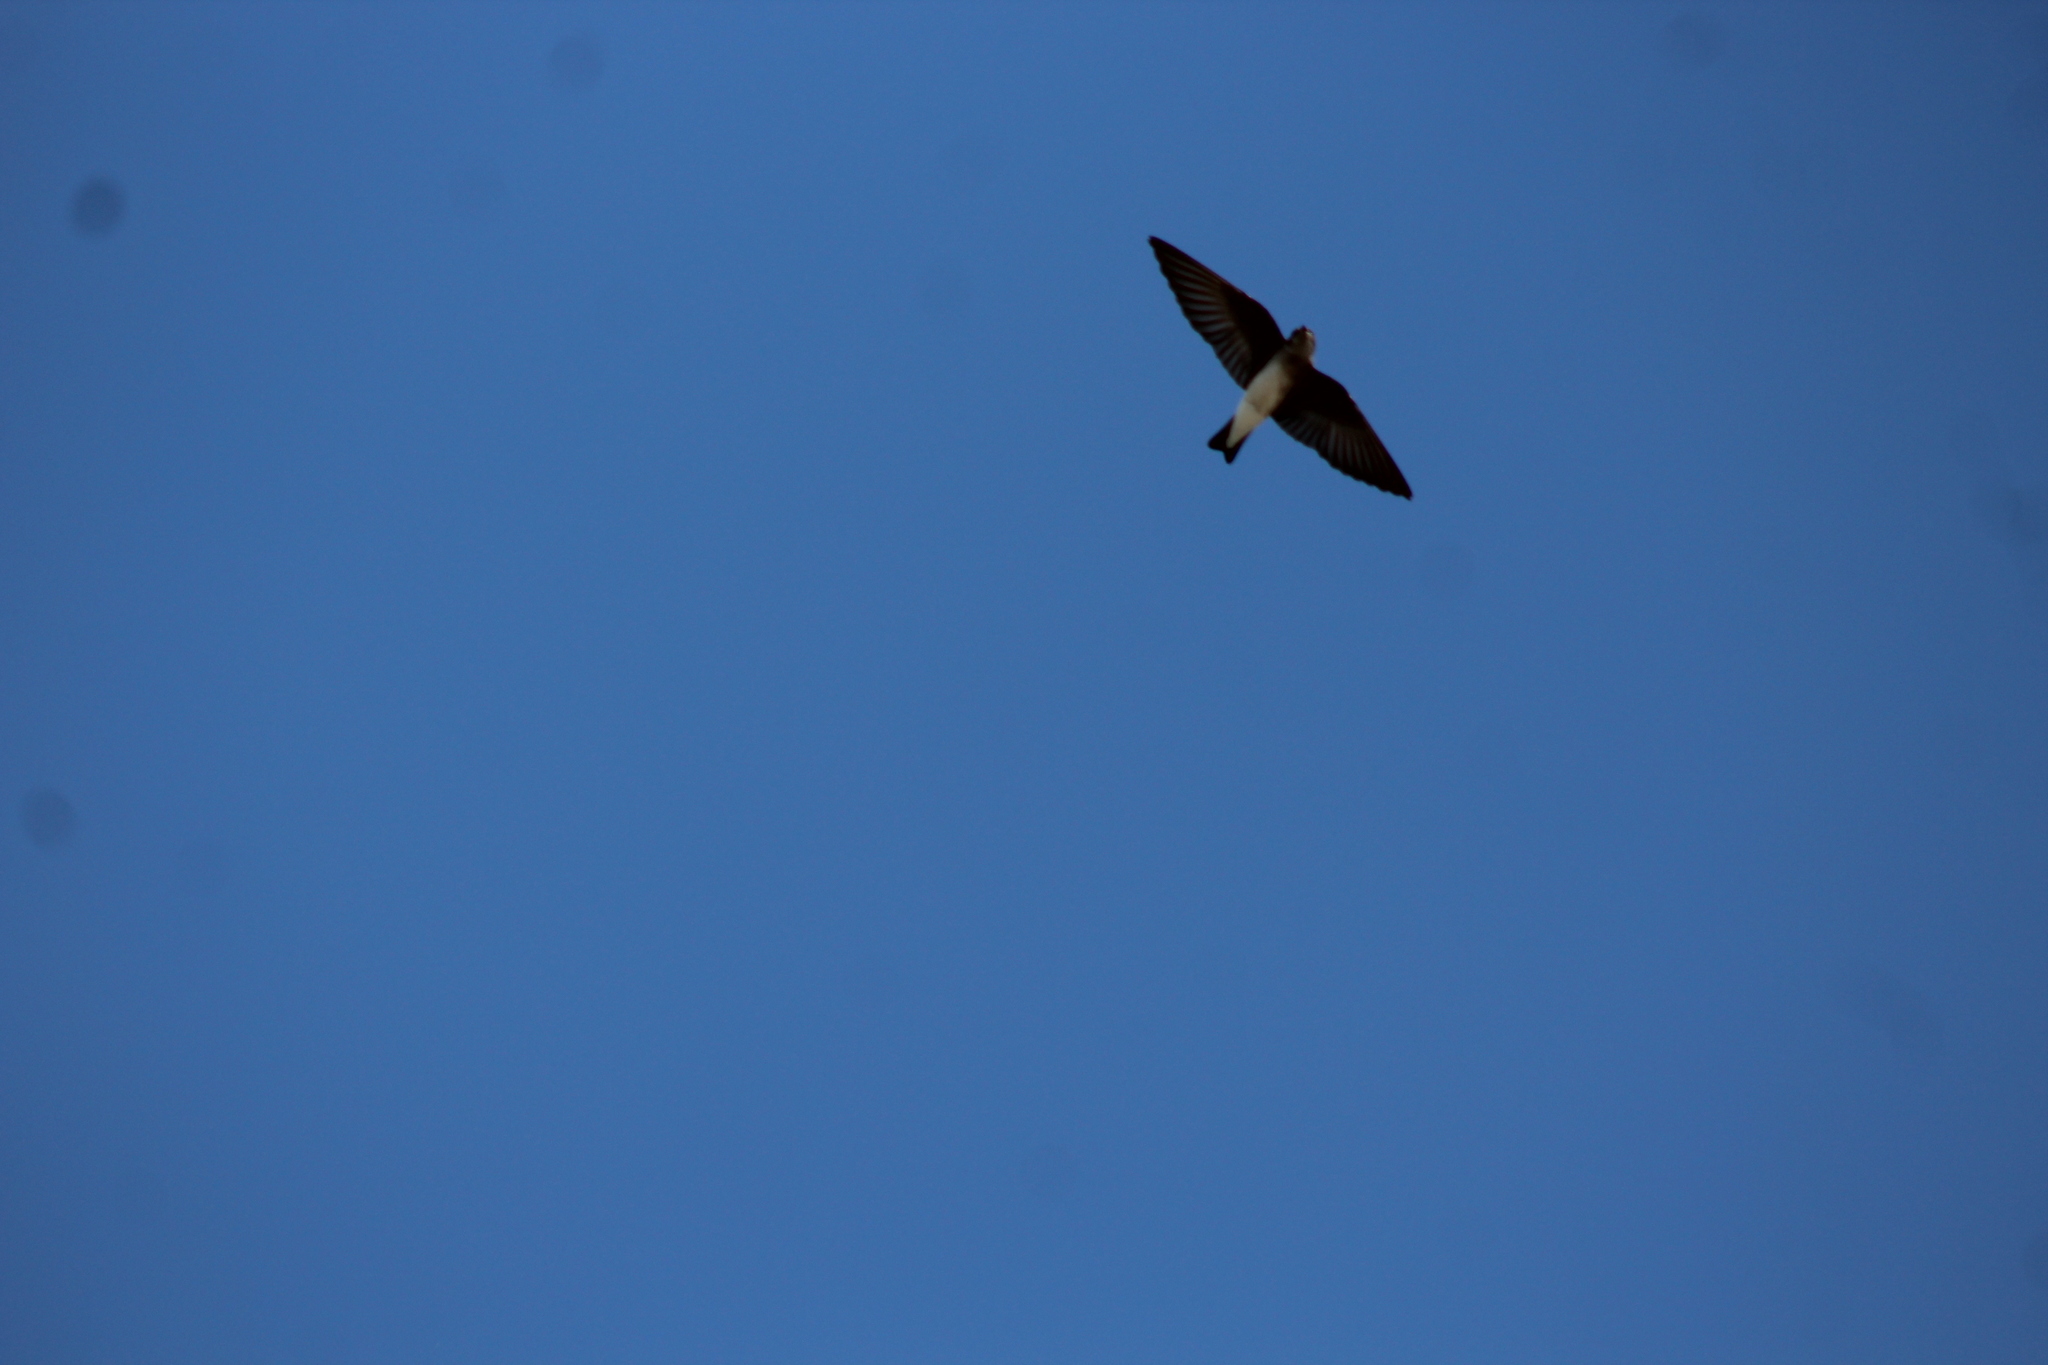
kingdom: Animalia
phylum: Chordata
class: Aves
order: Passeriformes
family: Hirundinidae
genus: Stelgidopteryx
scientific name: Stelgidopteryx serripennis
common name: Northern rough-winged swallow
